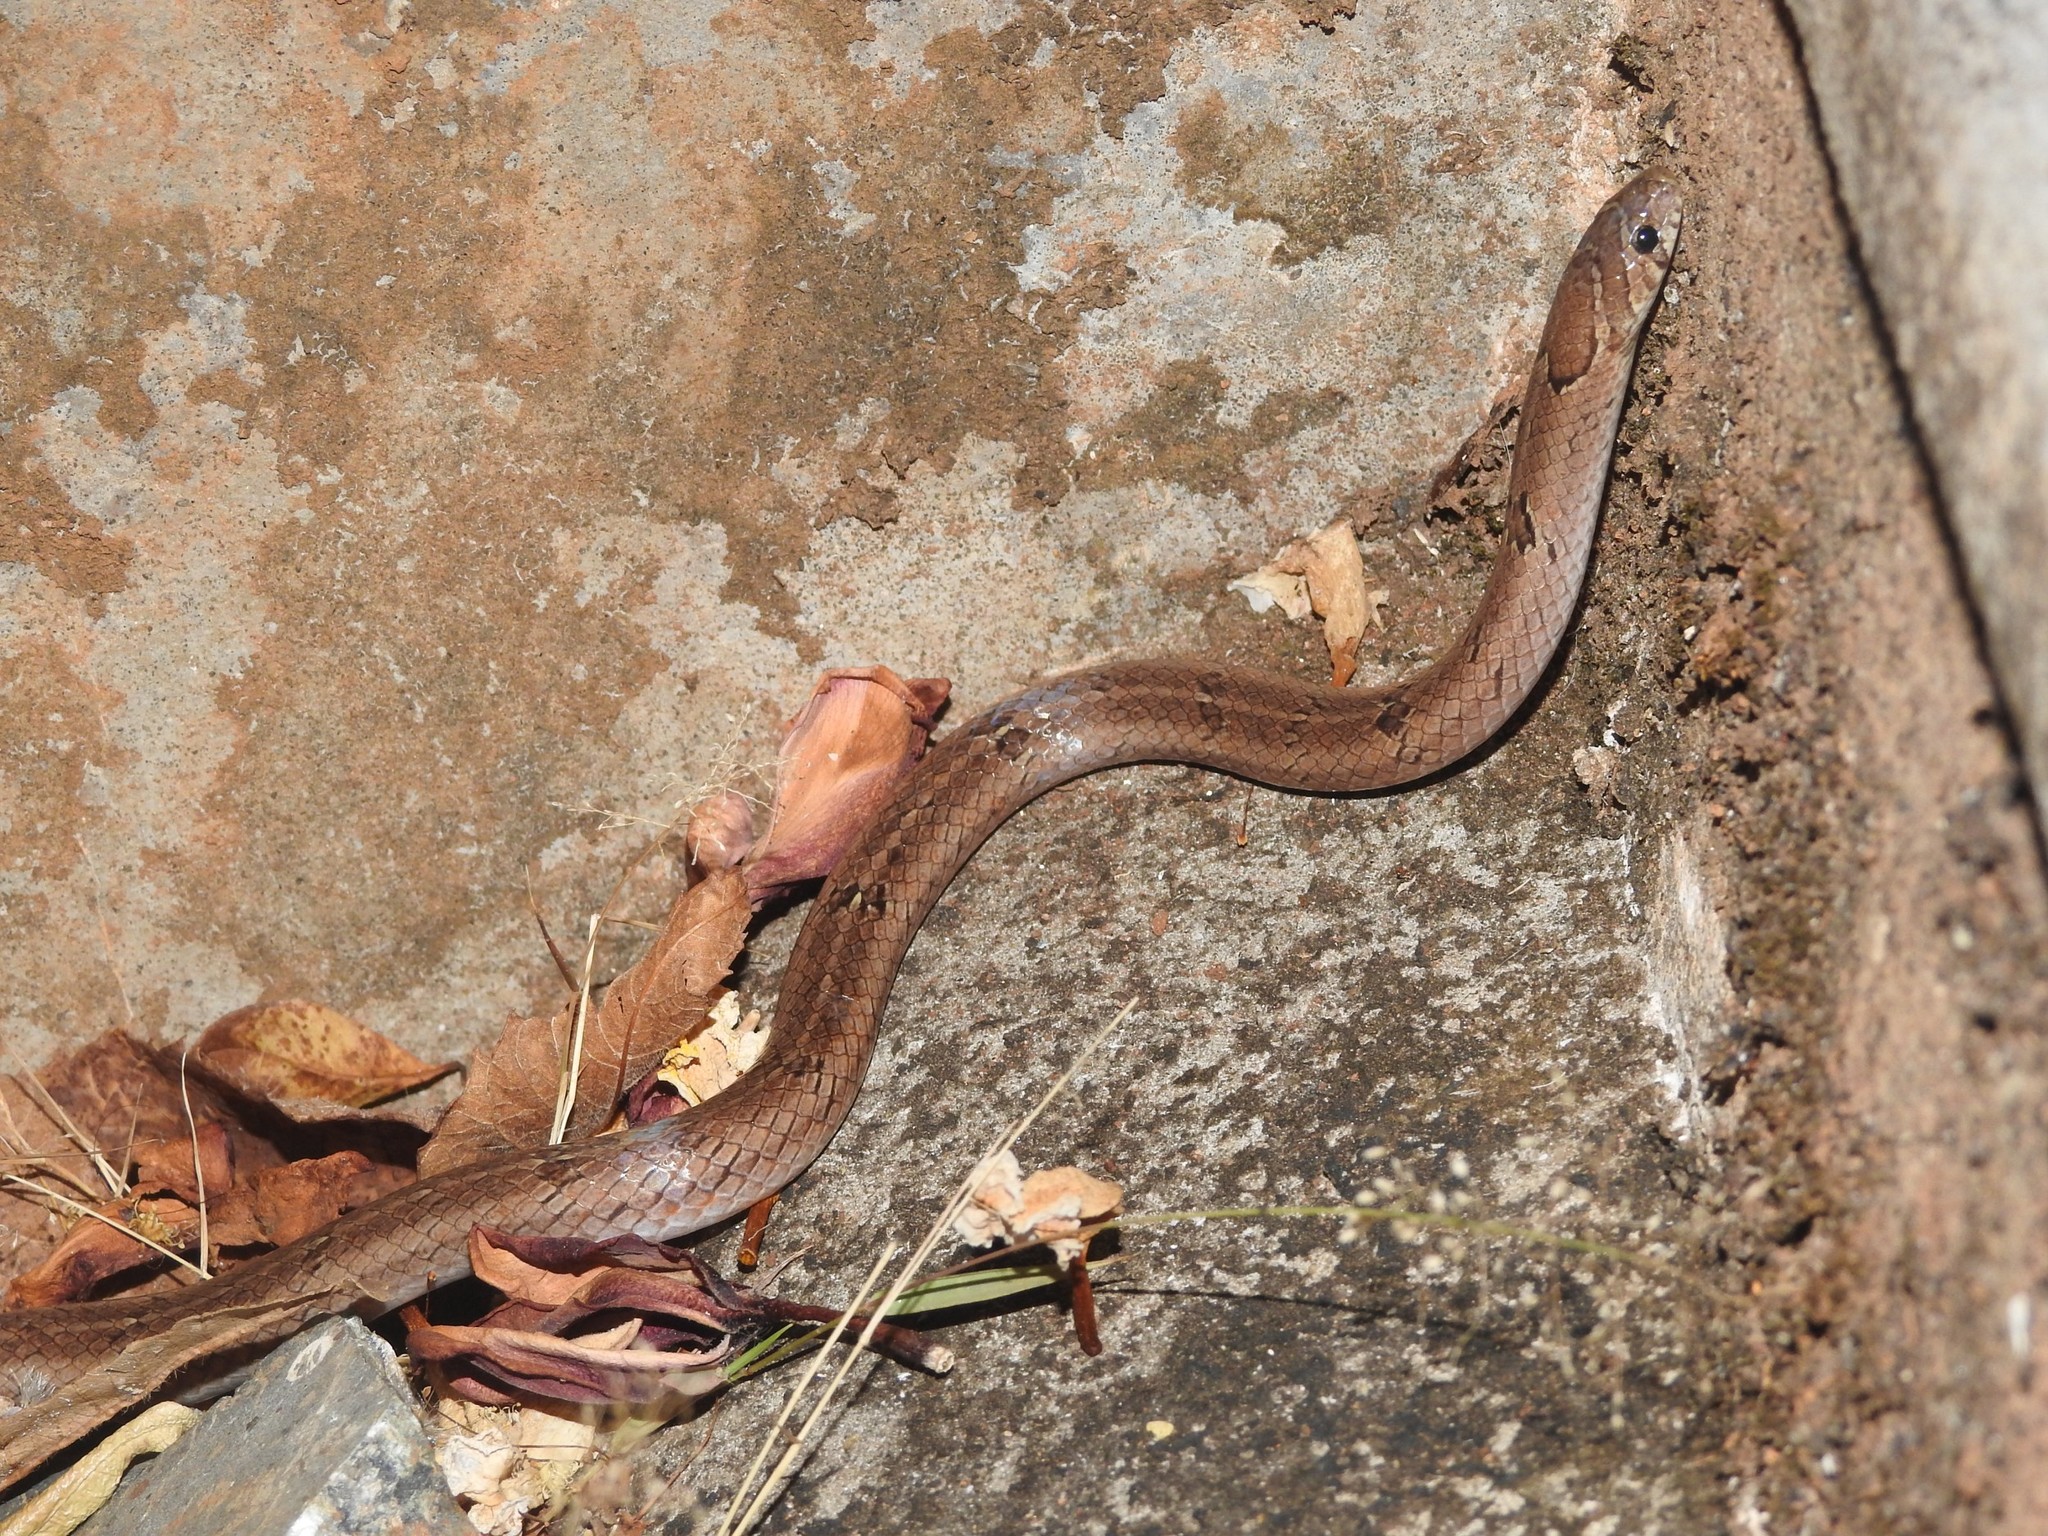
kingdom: Animalia
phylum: Chordata
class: Squamata
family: Colubridae
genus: Oligodon
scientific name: Oligodon taeniolatus
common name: Loos snake
